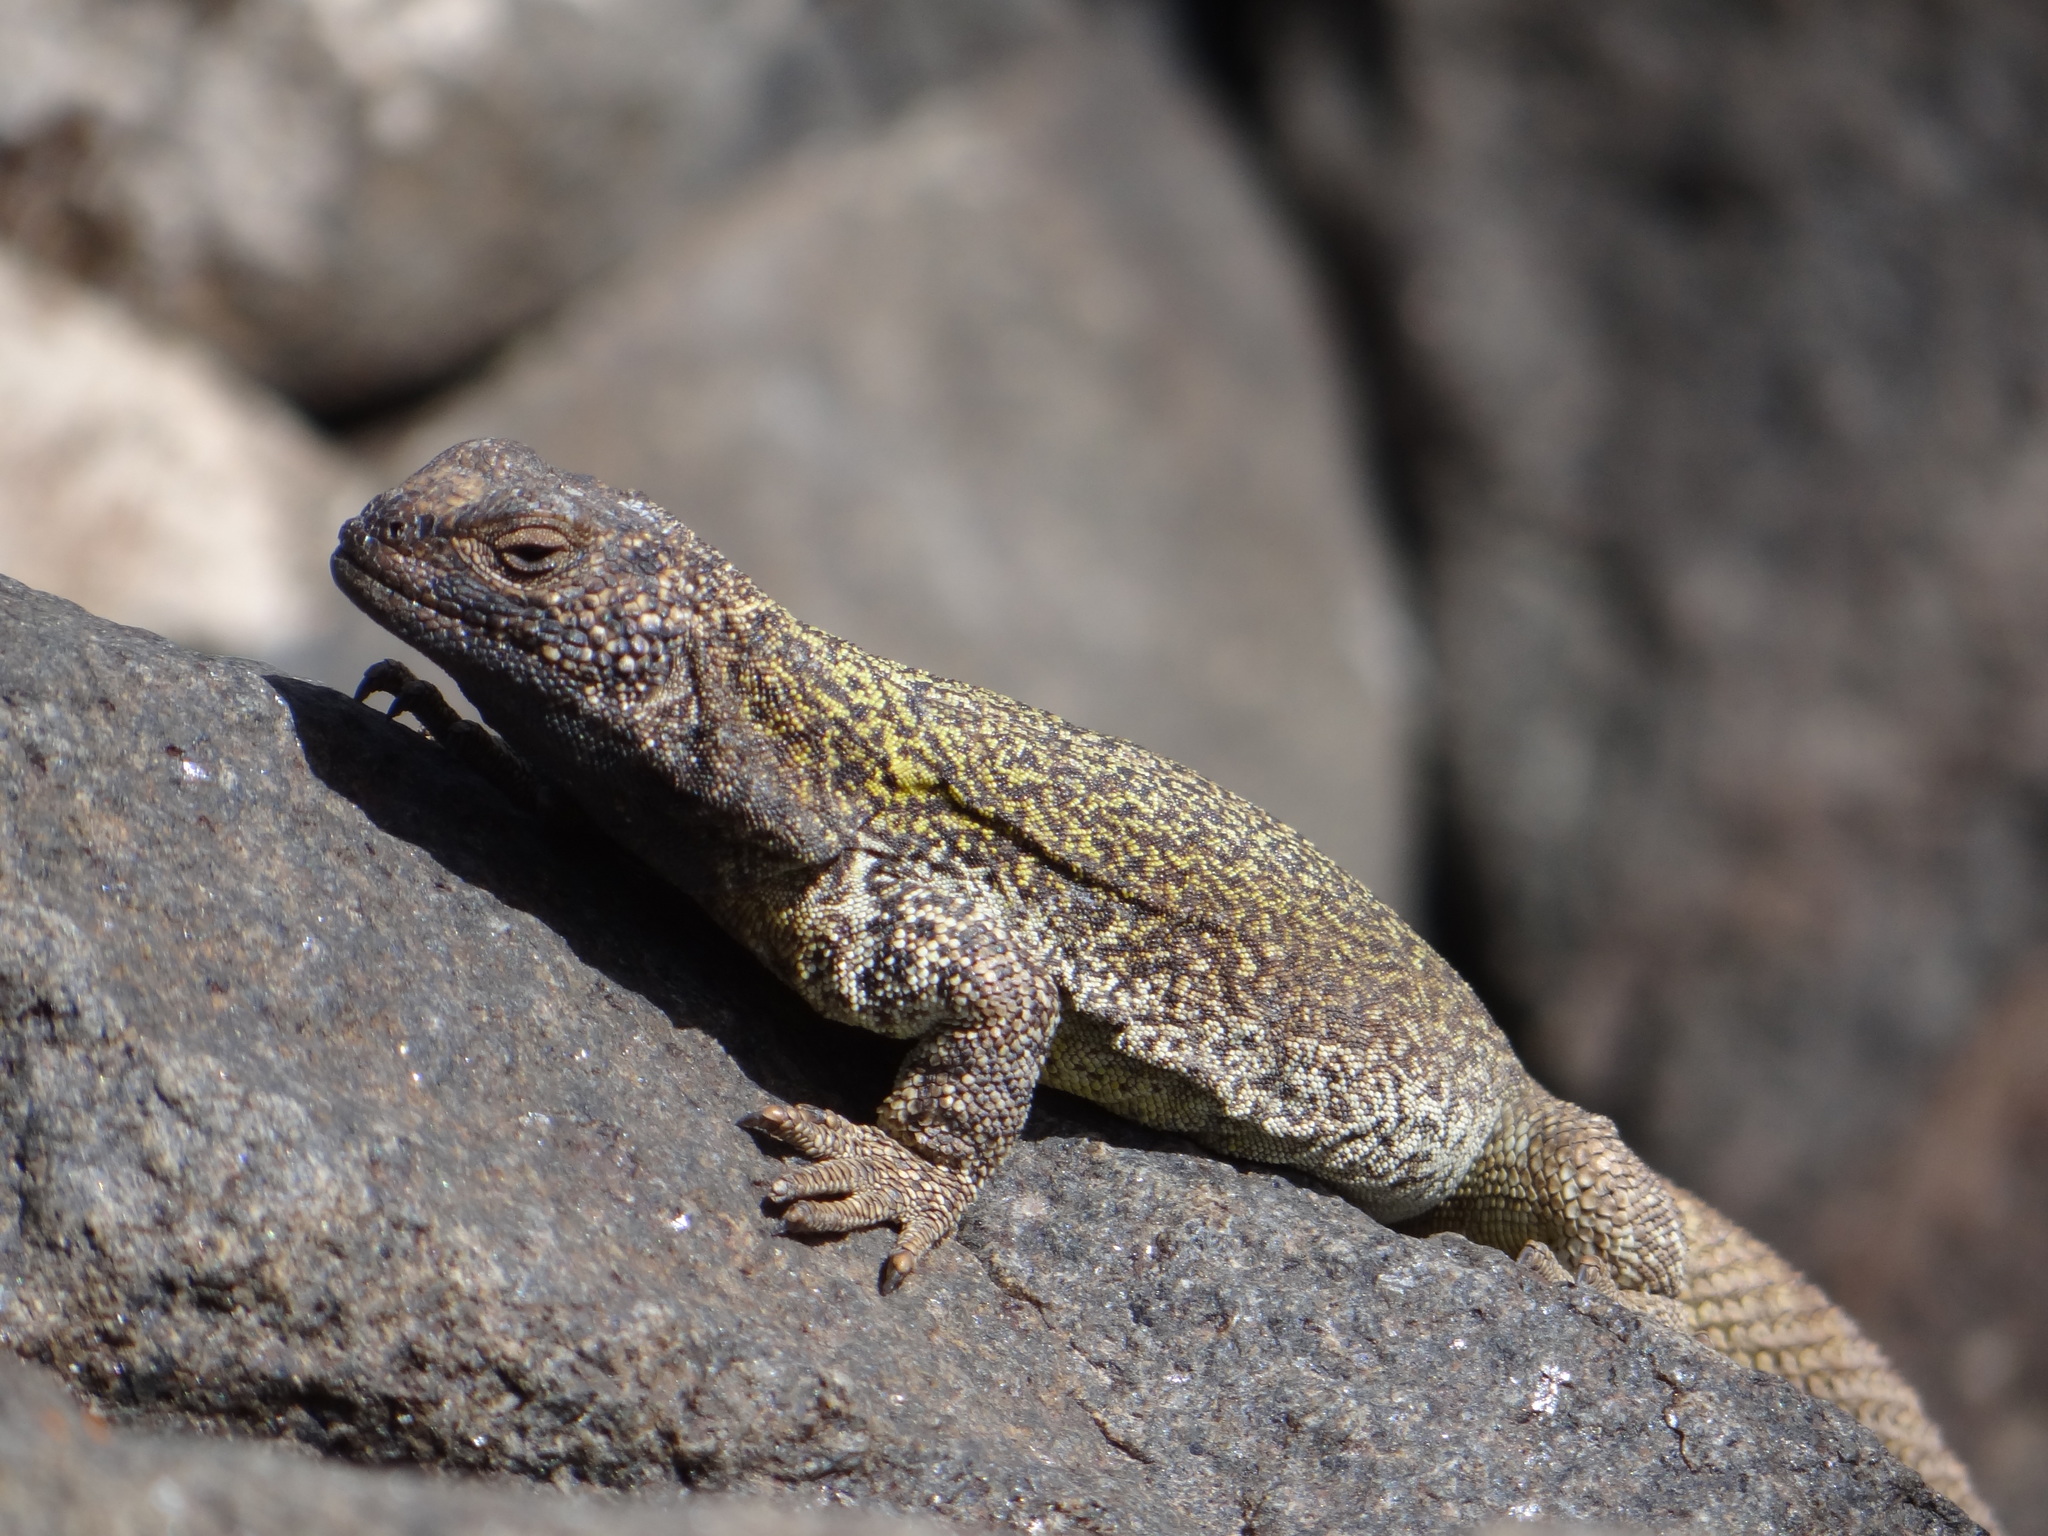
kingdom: Animalia
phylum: Chordata
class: Squamata
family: Liolaemidae
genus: Phymaturus
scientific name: Phymaturus extrilidus
